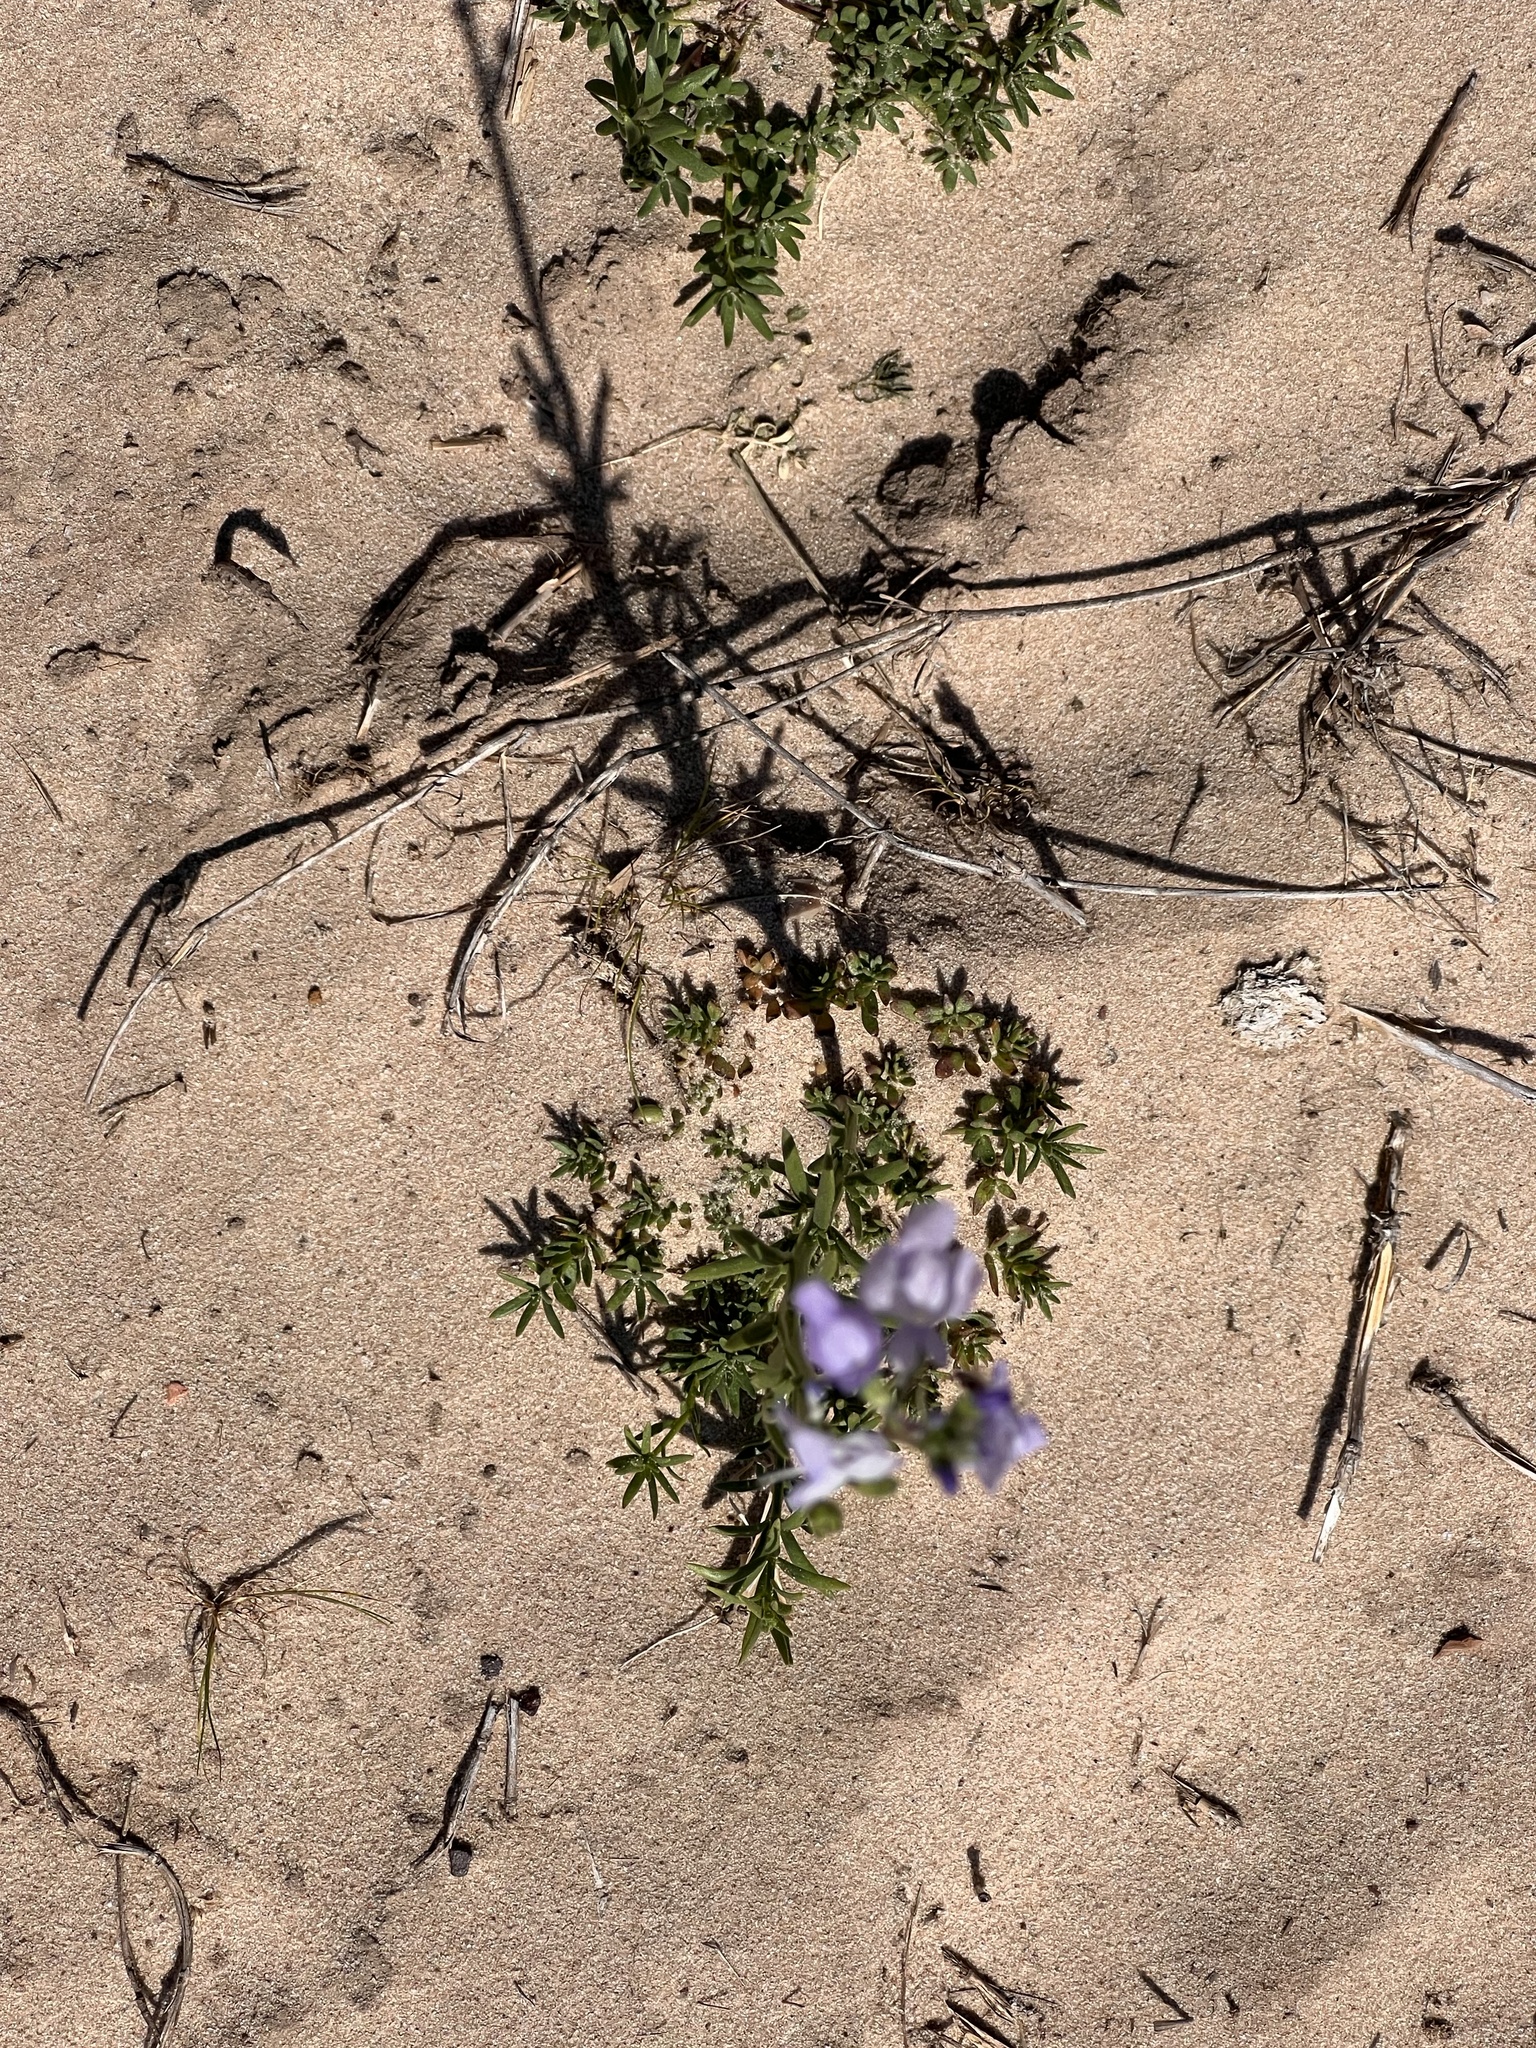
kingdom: Plantae
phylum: Tracheophyta
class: Magnoliopsida
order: Lamiales
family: Plantaginaceae
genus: Nuttallanthus
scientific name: Nuttallanthus texanus
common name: Texas toadflax
